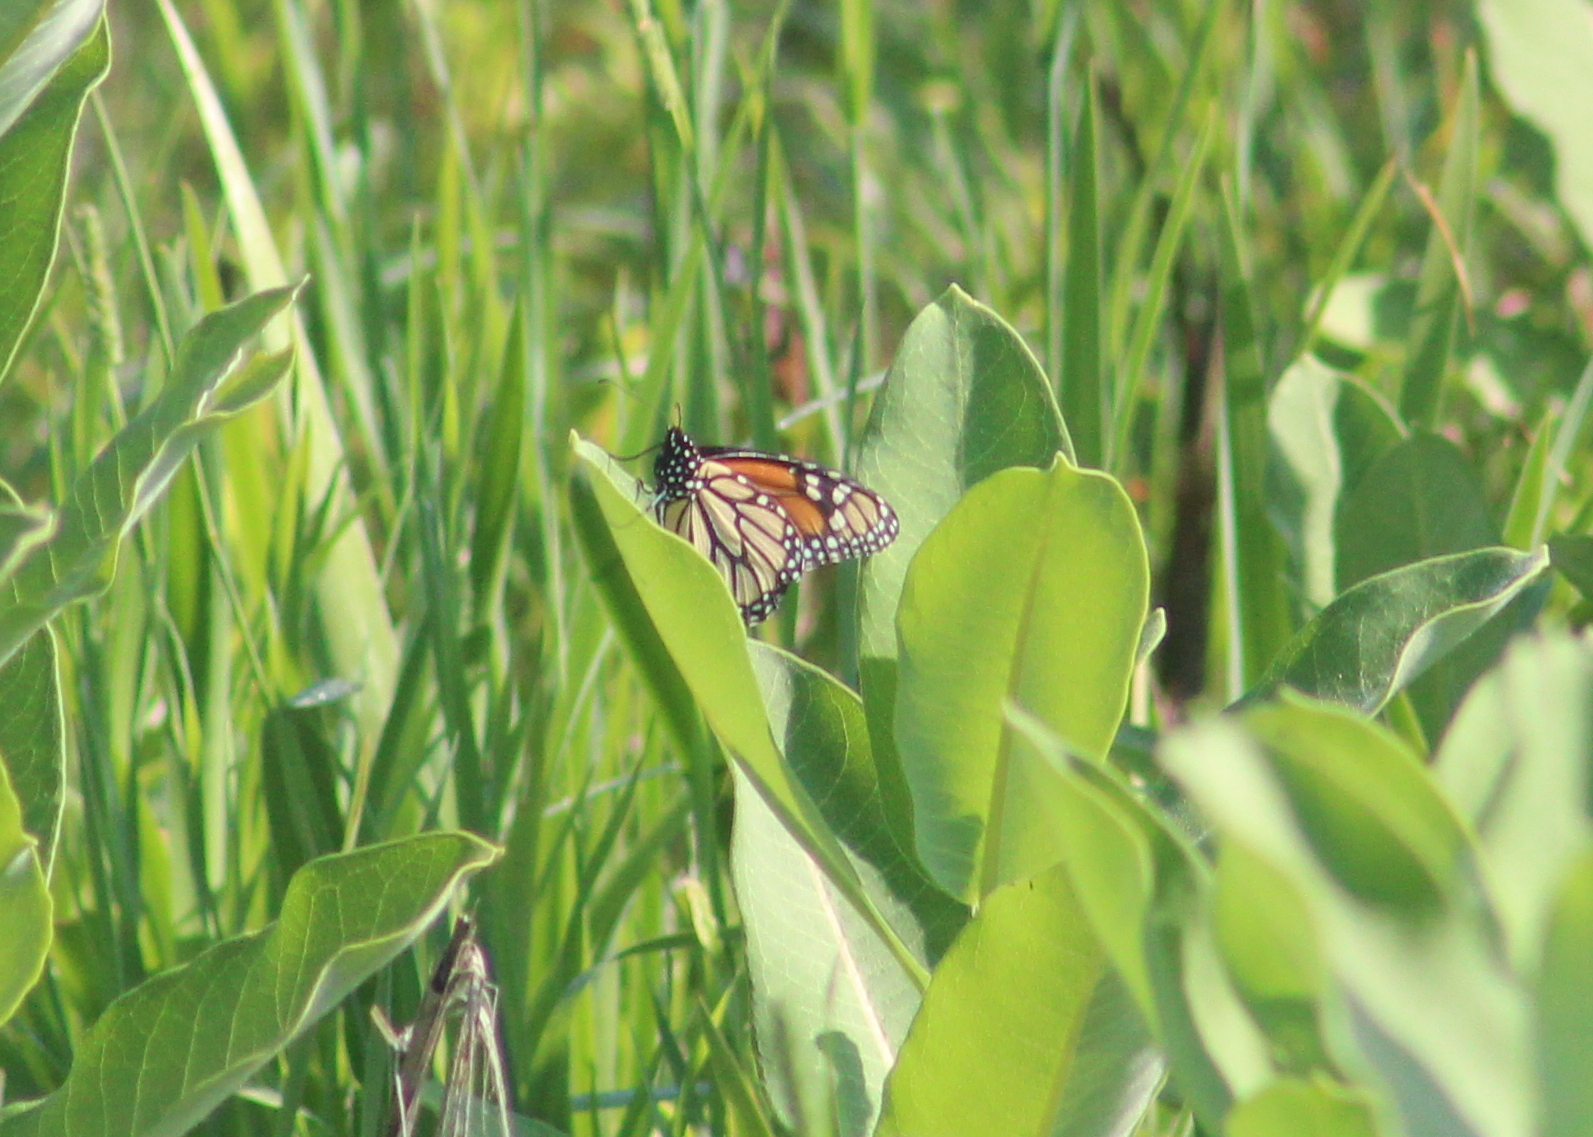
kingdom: Plantae
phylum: Tracheophyta
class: Magnoliopsida
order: Gentianales
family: Apocynaceae
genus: Asclepias
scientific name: Asclepias syriaca
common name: Common milkweed
